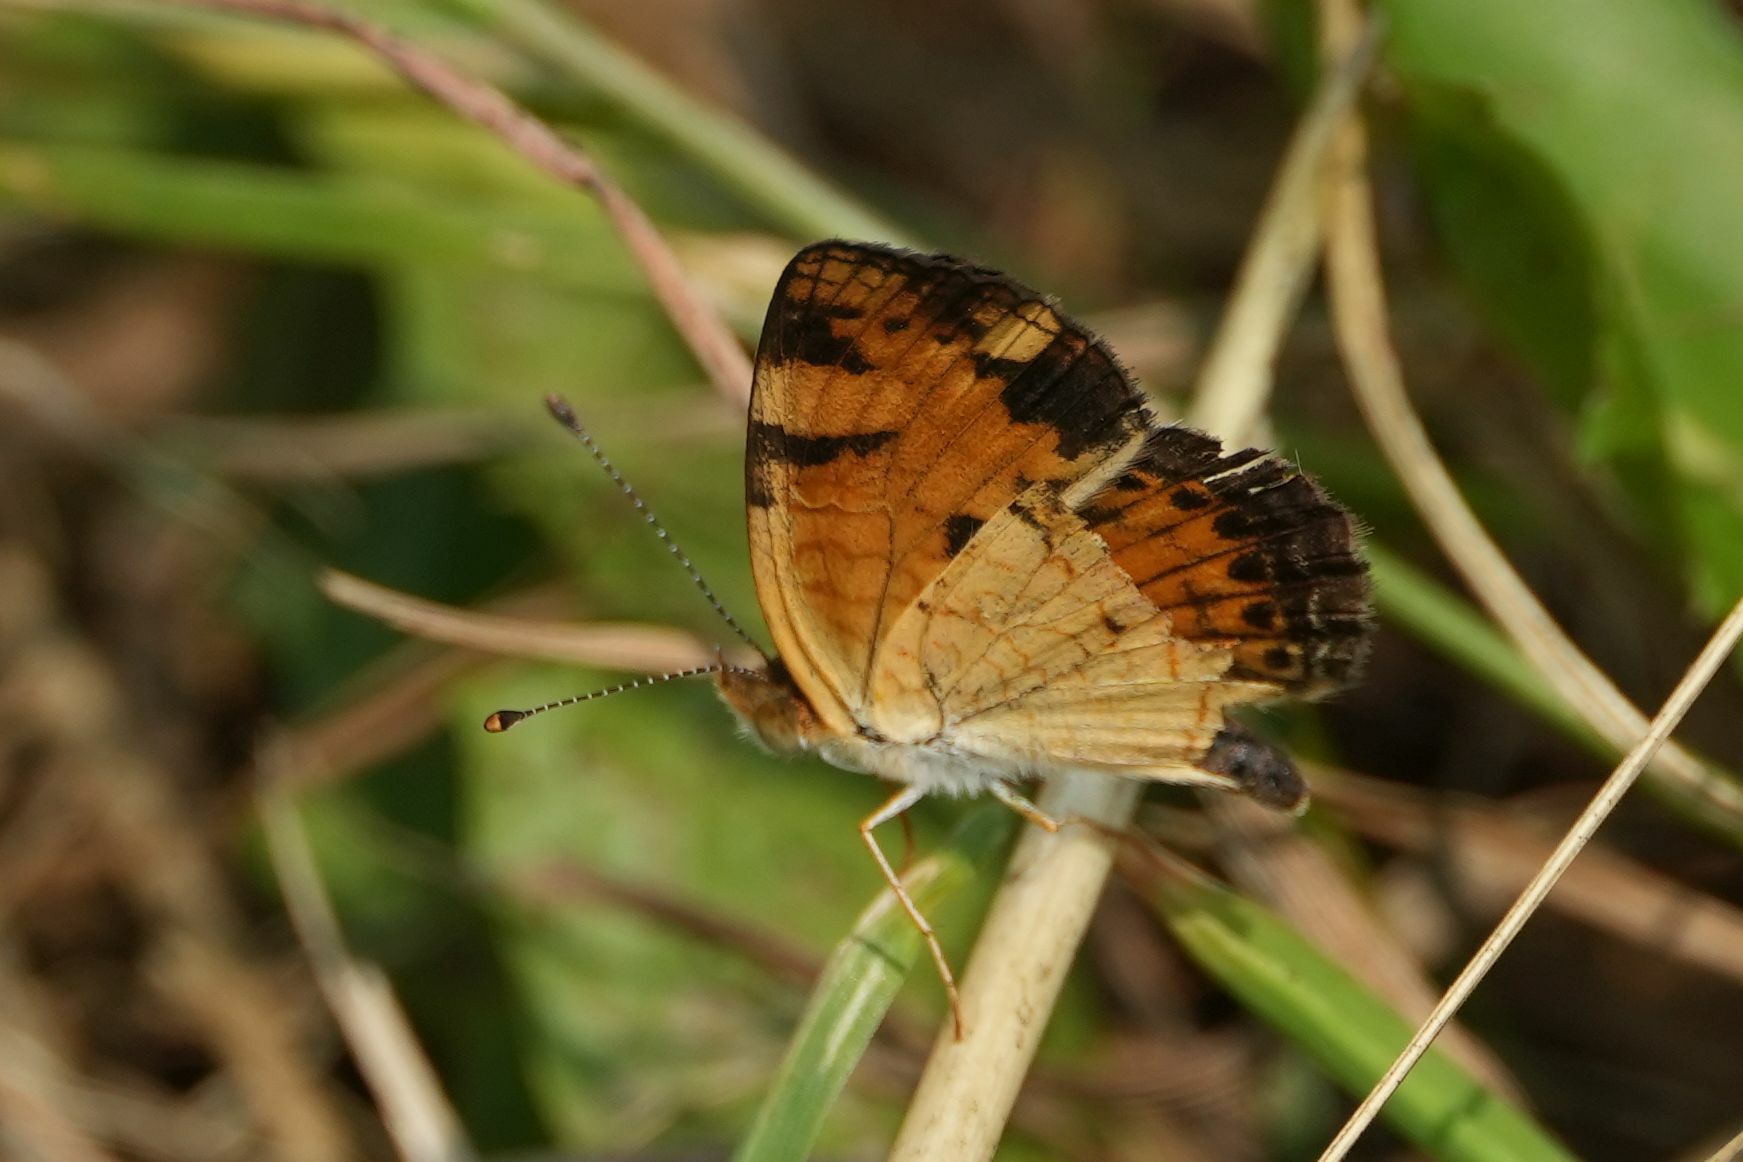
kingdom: Animalia
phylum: Arthropoda
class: Insecta
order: Lepidoptera
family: Nymphalidae
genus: Phyciodes
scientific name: Phyciodes tharos
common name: Pearl crescent
